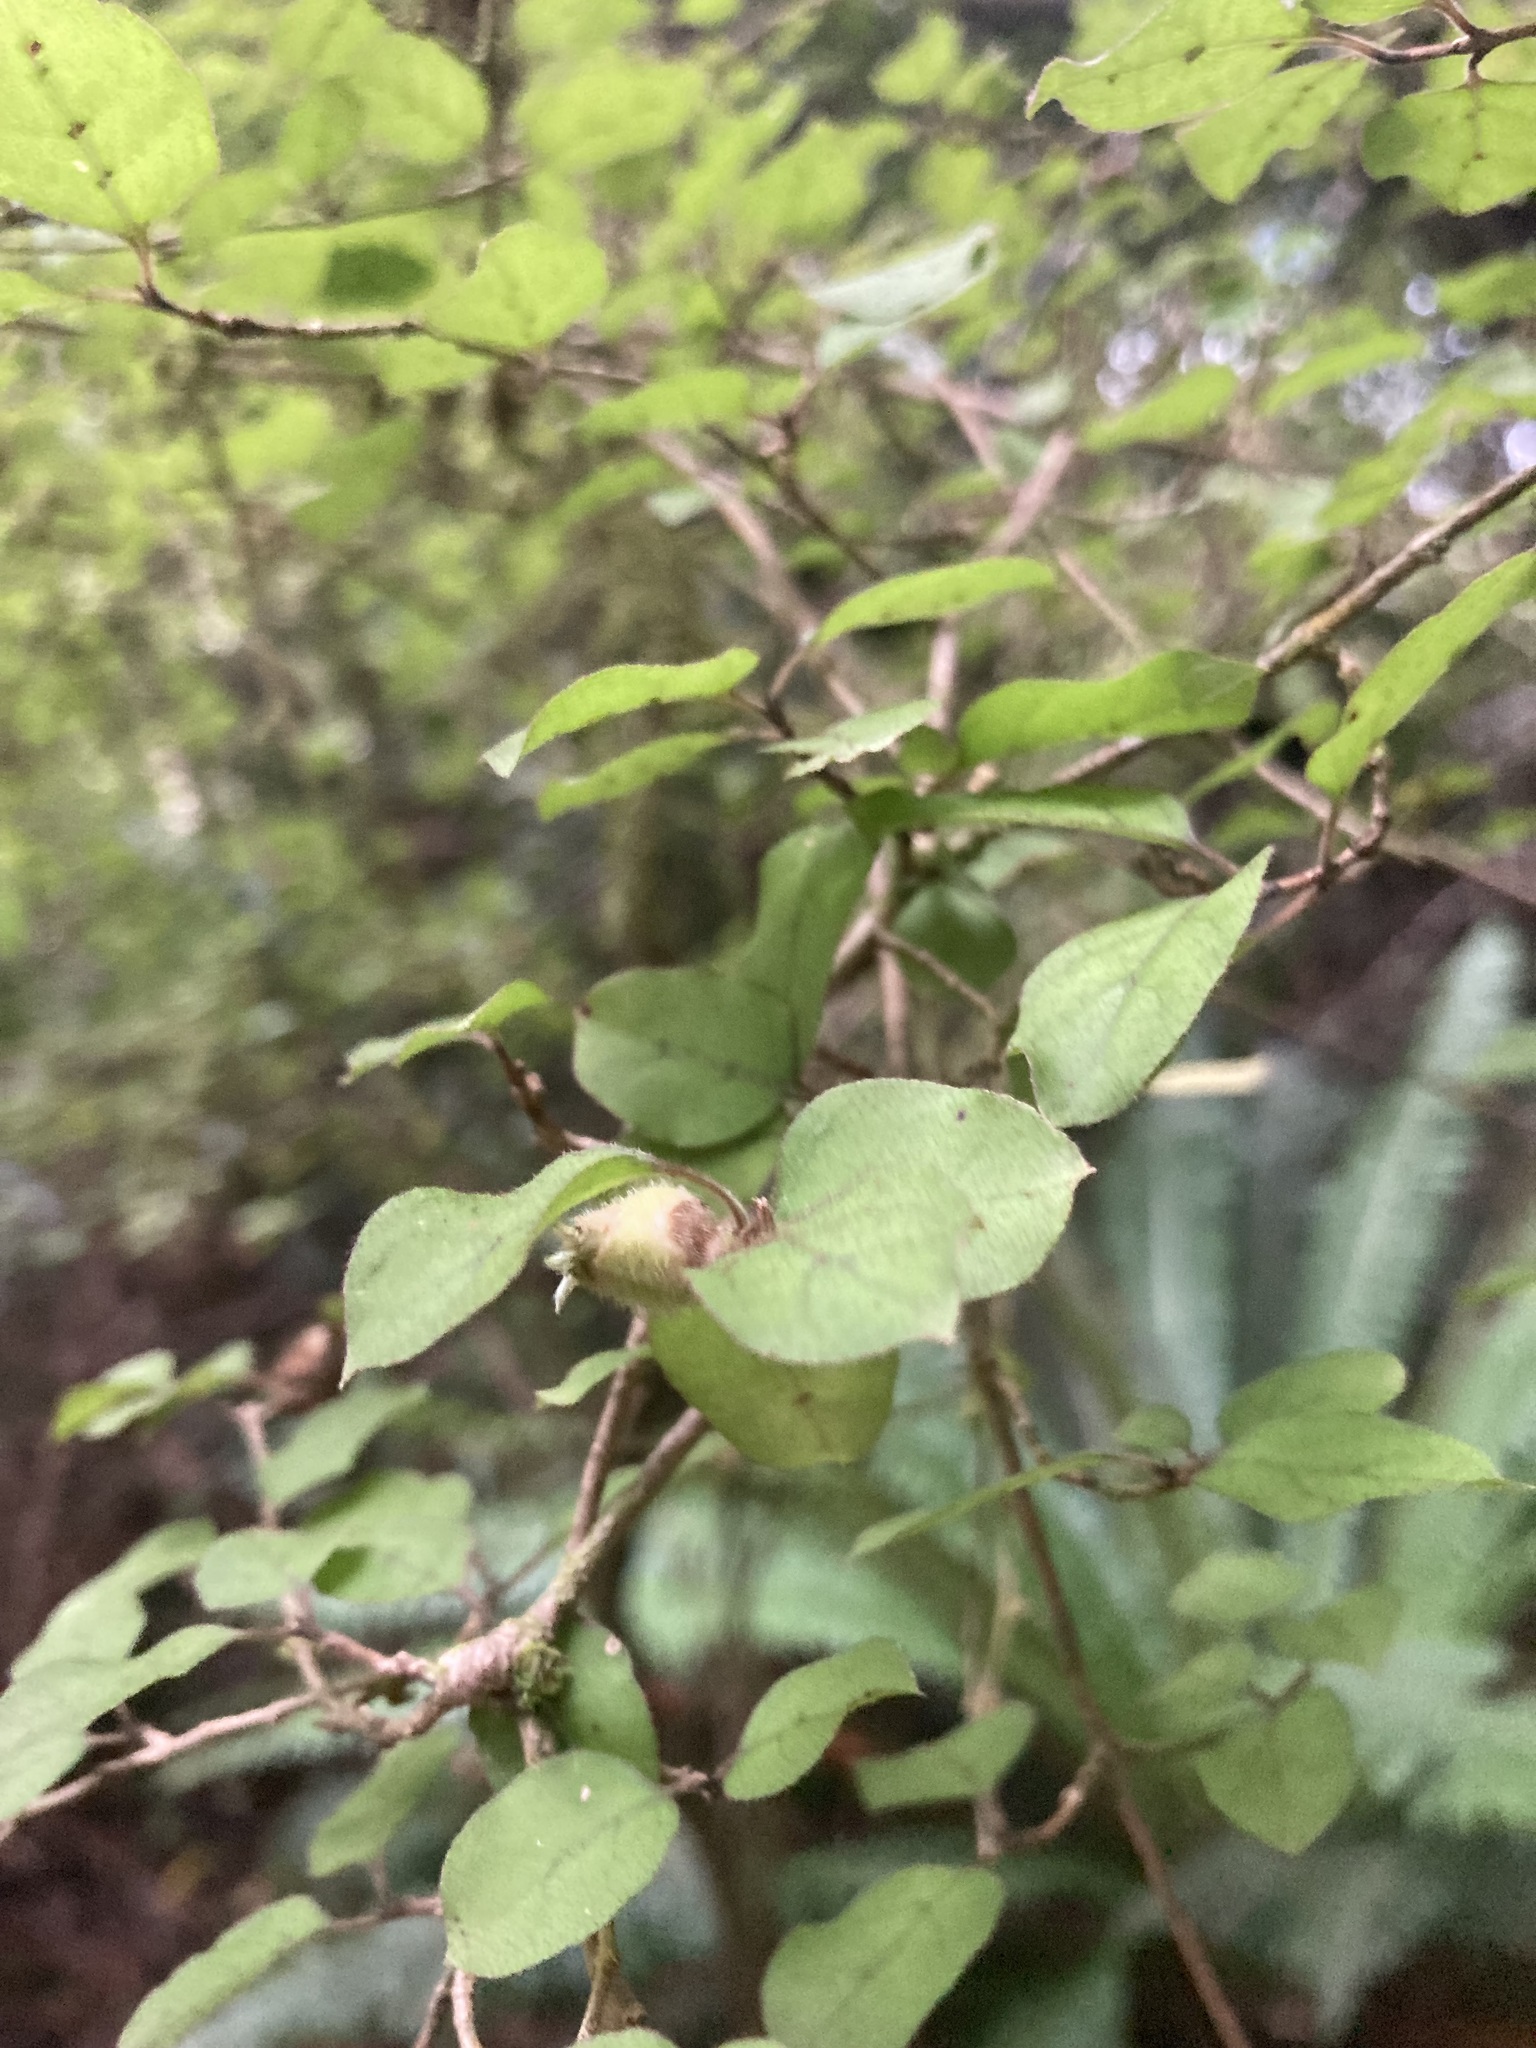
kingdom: Plantae
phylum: Tracheophyta
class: Magnoliopsida
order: Gentianales
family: Rubiaceae
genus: Coprosma
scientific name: Coprosma rotundifolia
